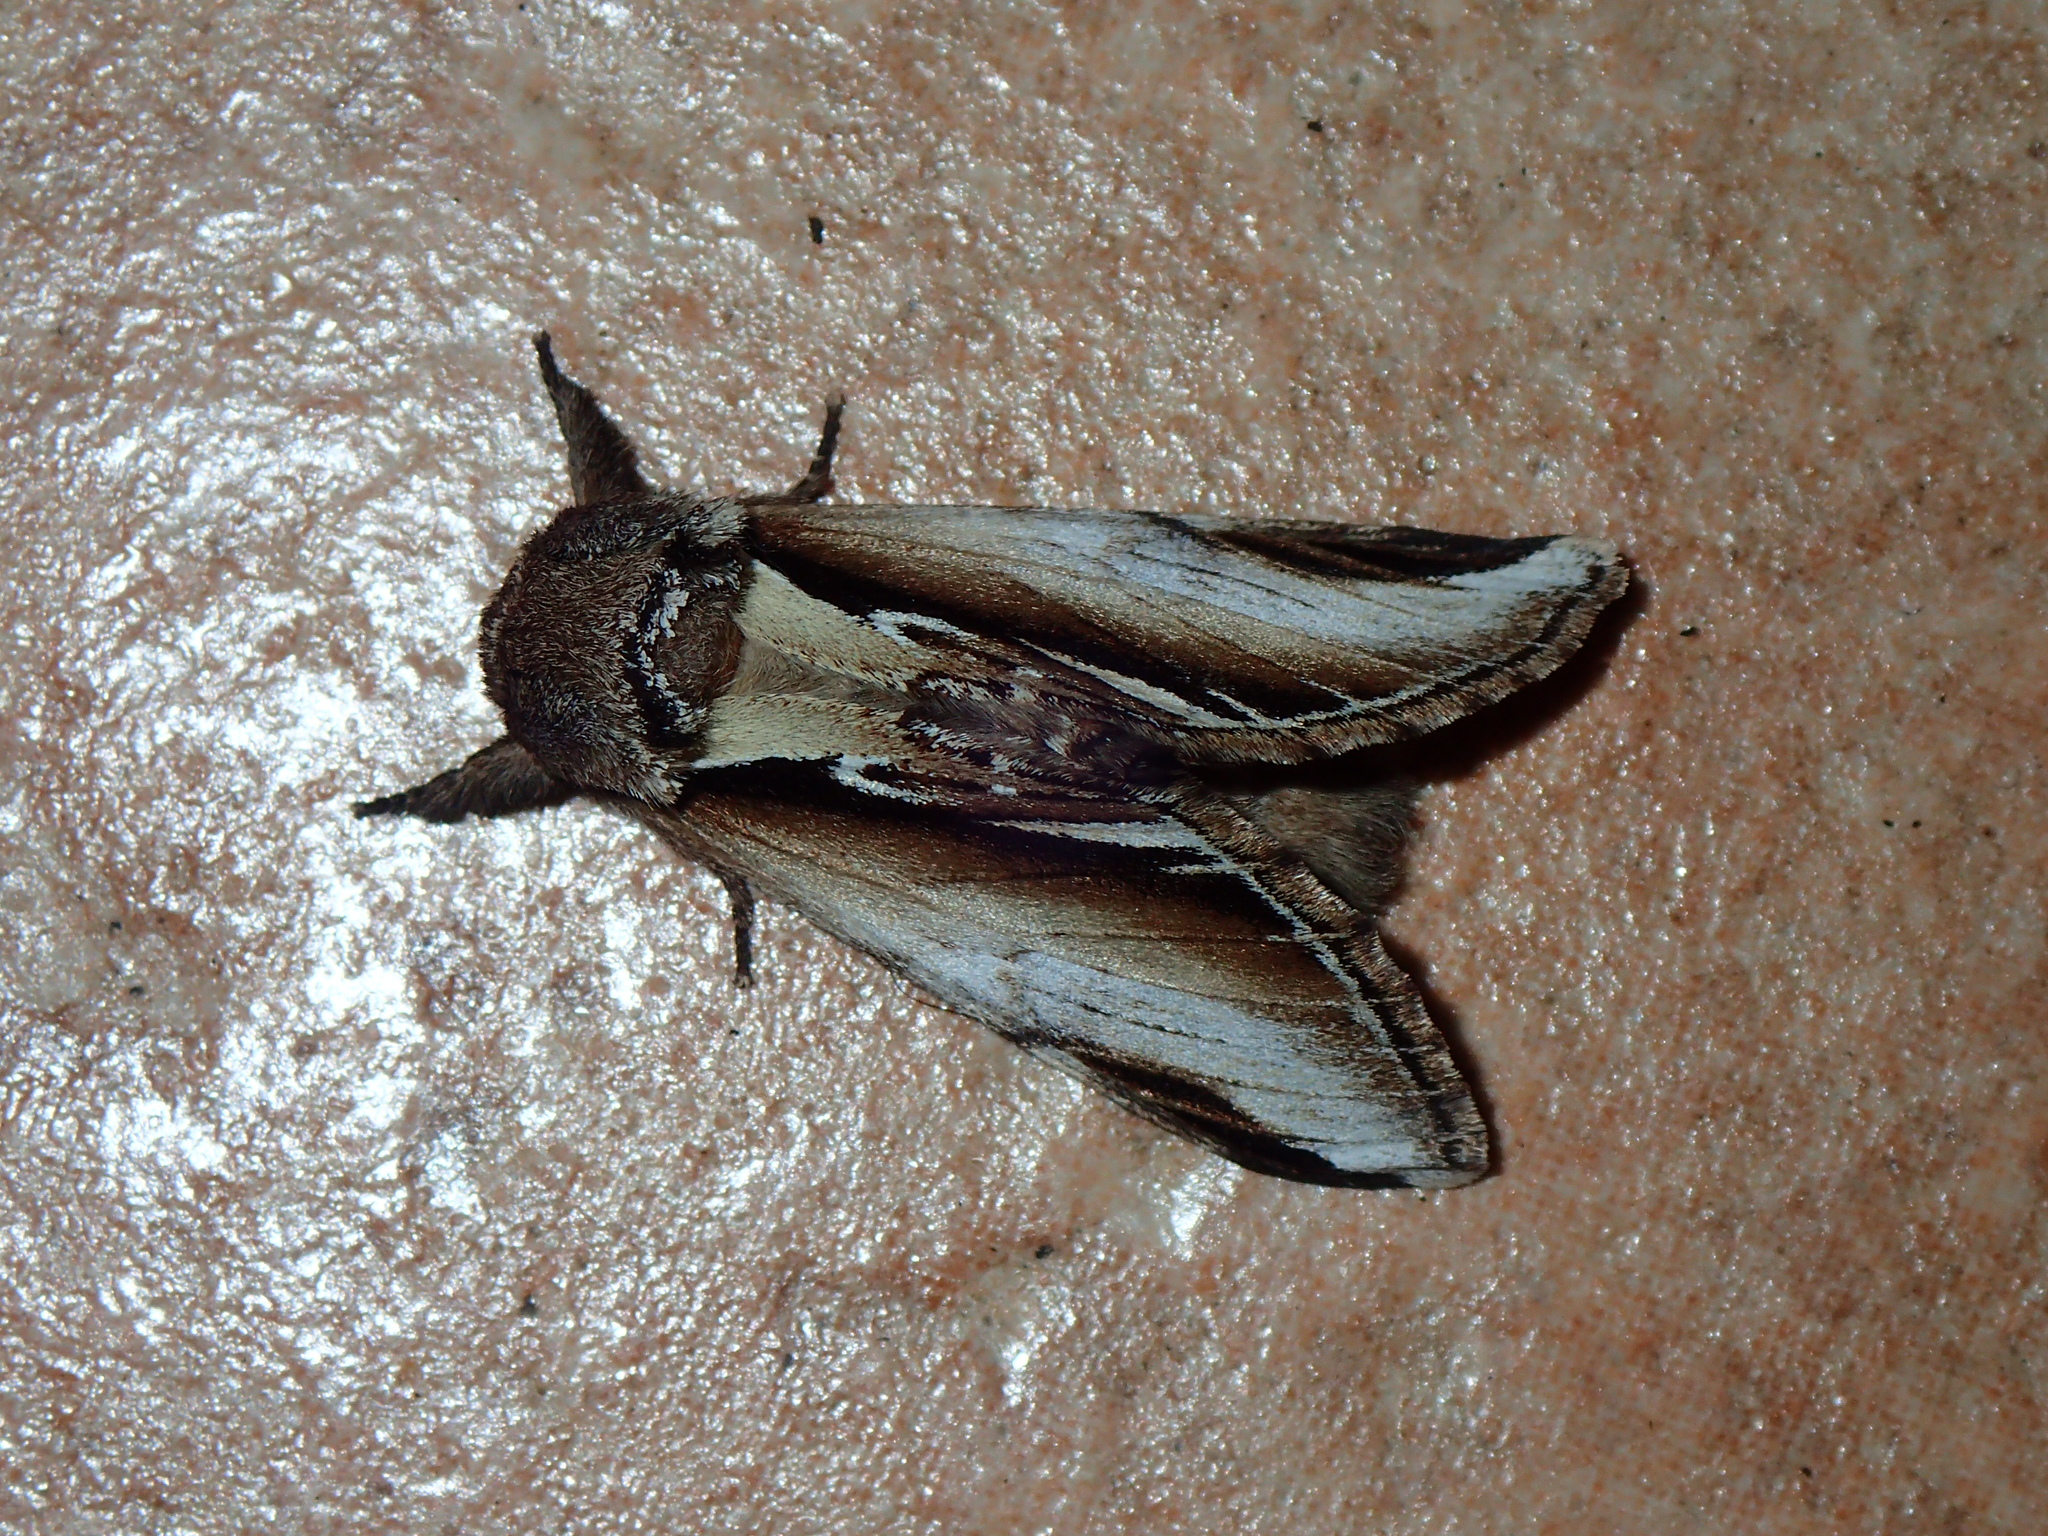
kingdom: Animalia
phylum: Arthropoda
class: Insecta
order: Lepidoptera
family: Notodontidae
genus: Pheosia
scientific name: Pheosia gnoma
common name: Lesser swallow prominent
